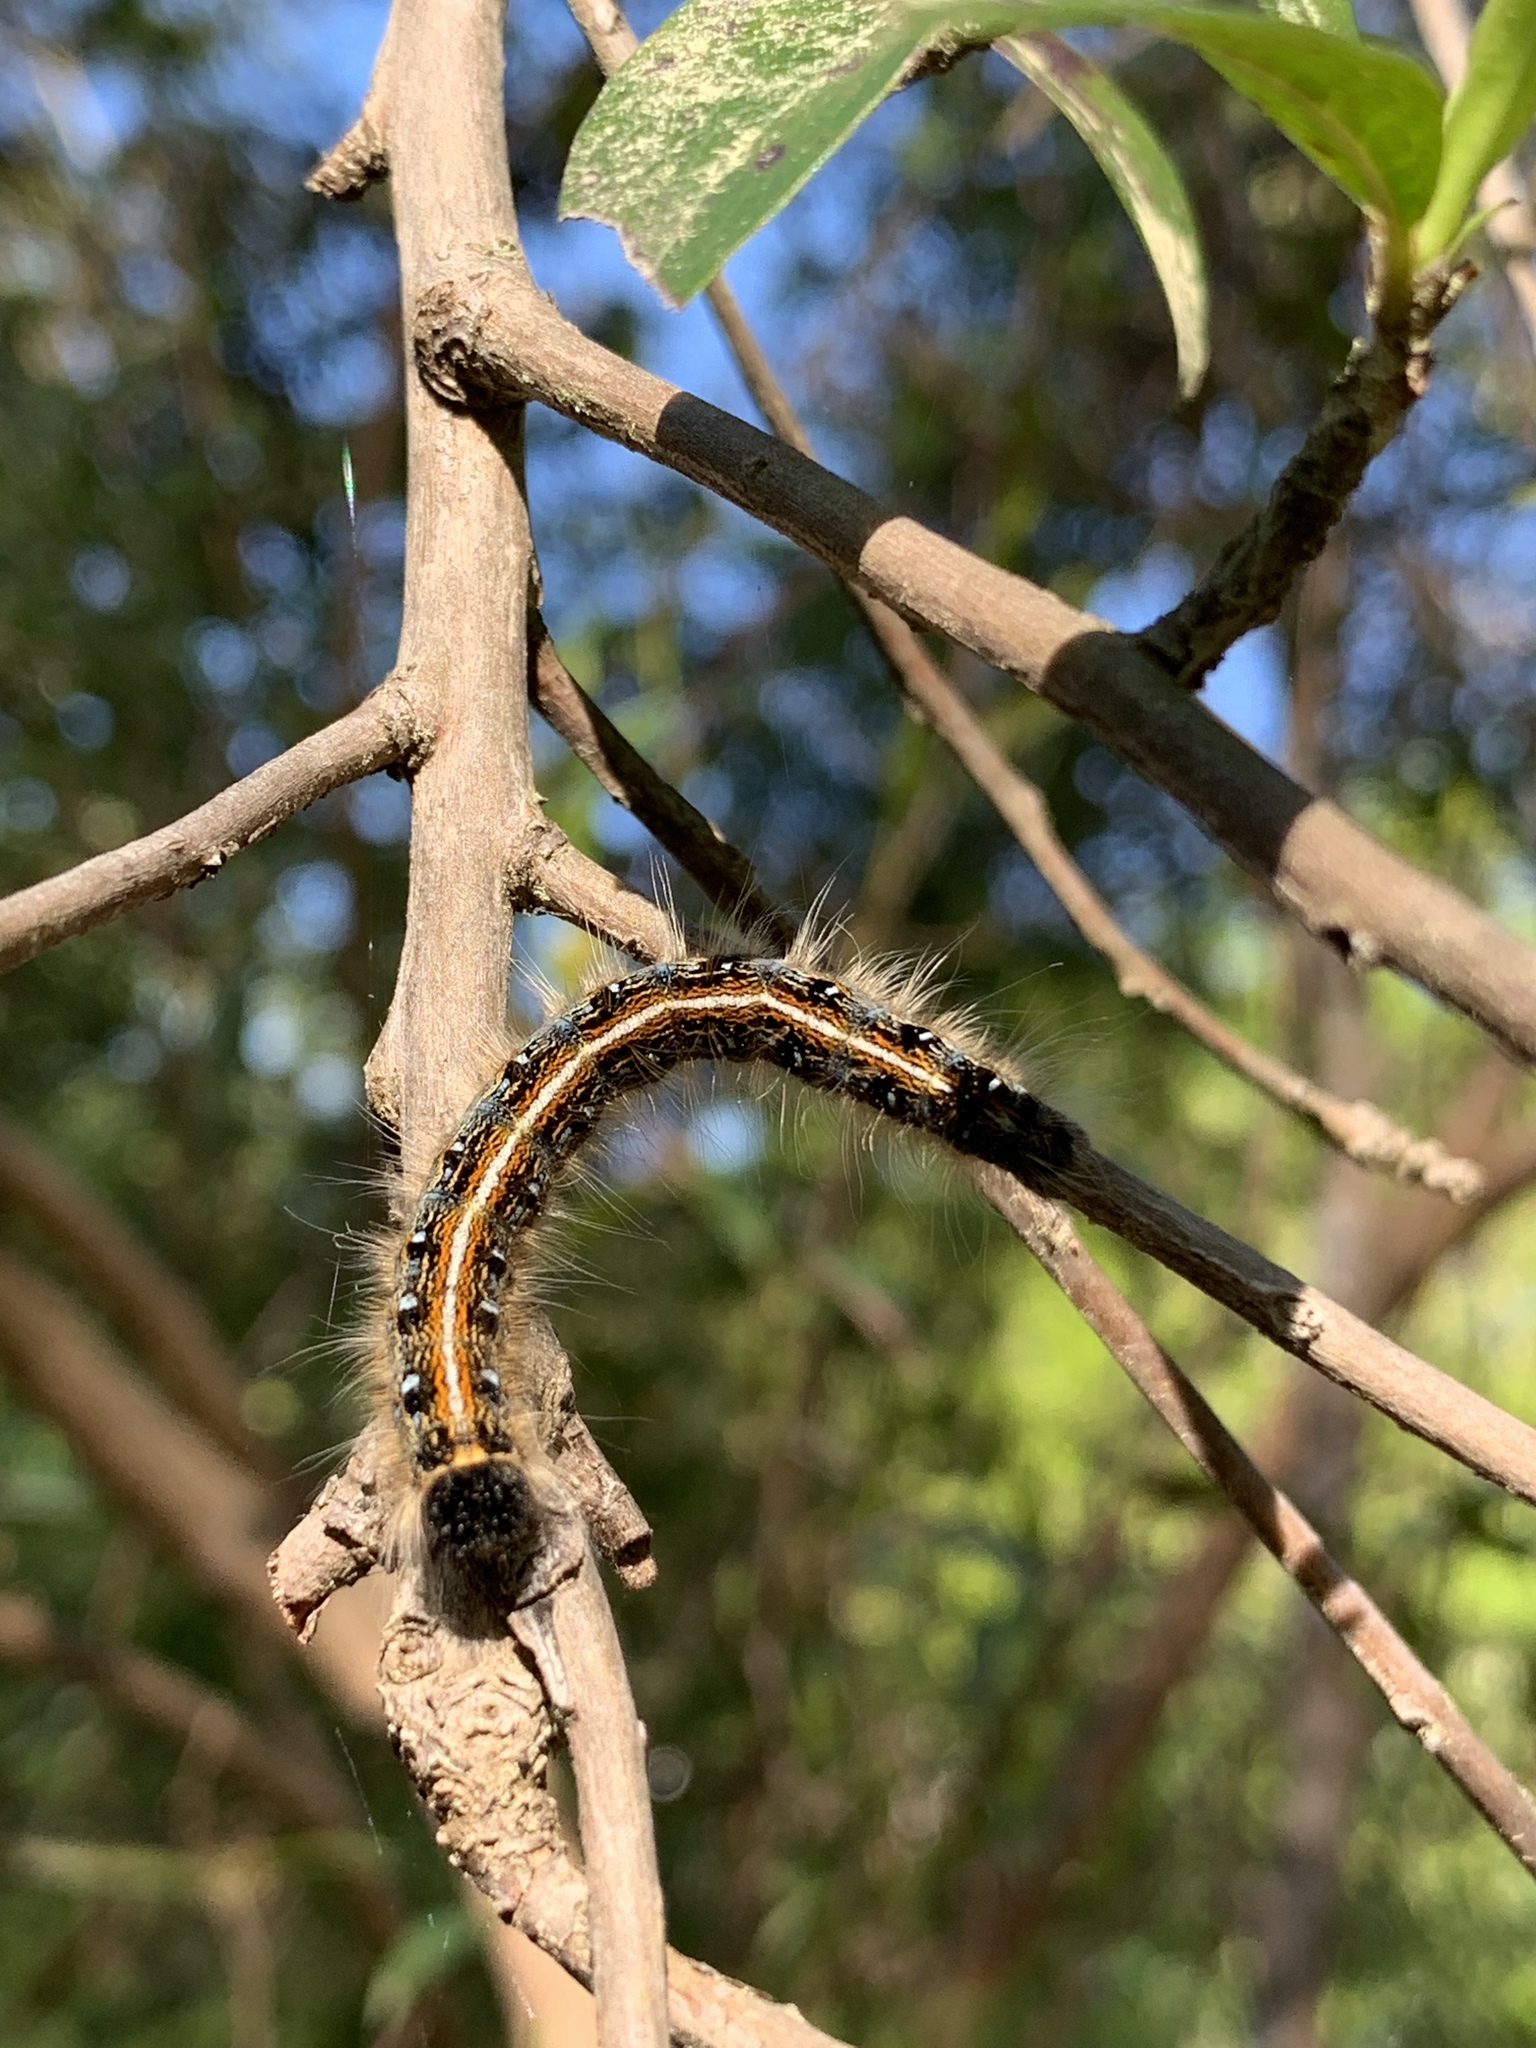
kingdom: Animalia
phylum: Arthropoda
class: Insecta
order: Lepidoptera
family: Lasiocampidae
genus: Malacosoma
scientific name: Malacosoma americana
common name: Eastern tent caterpillar moth
